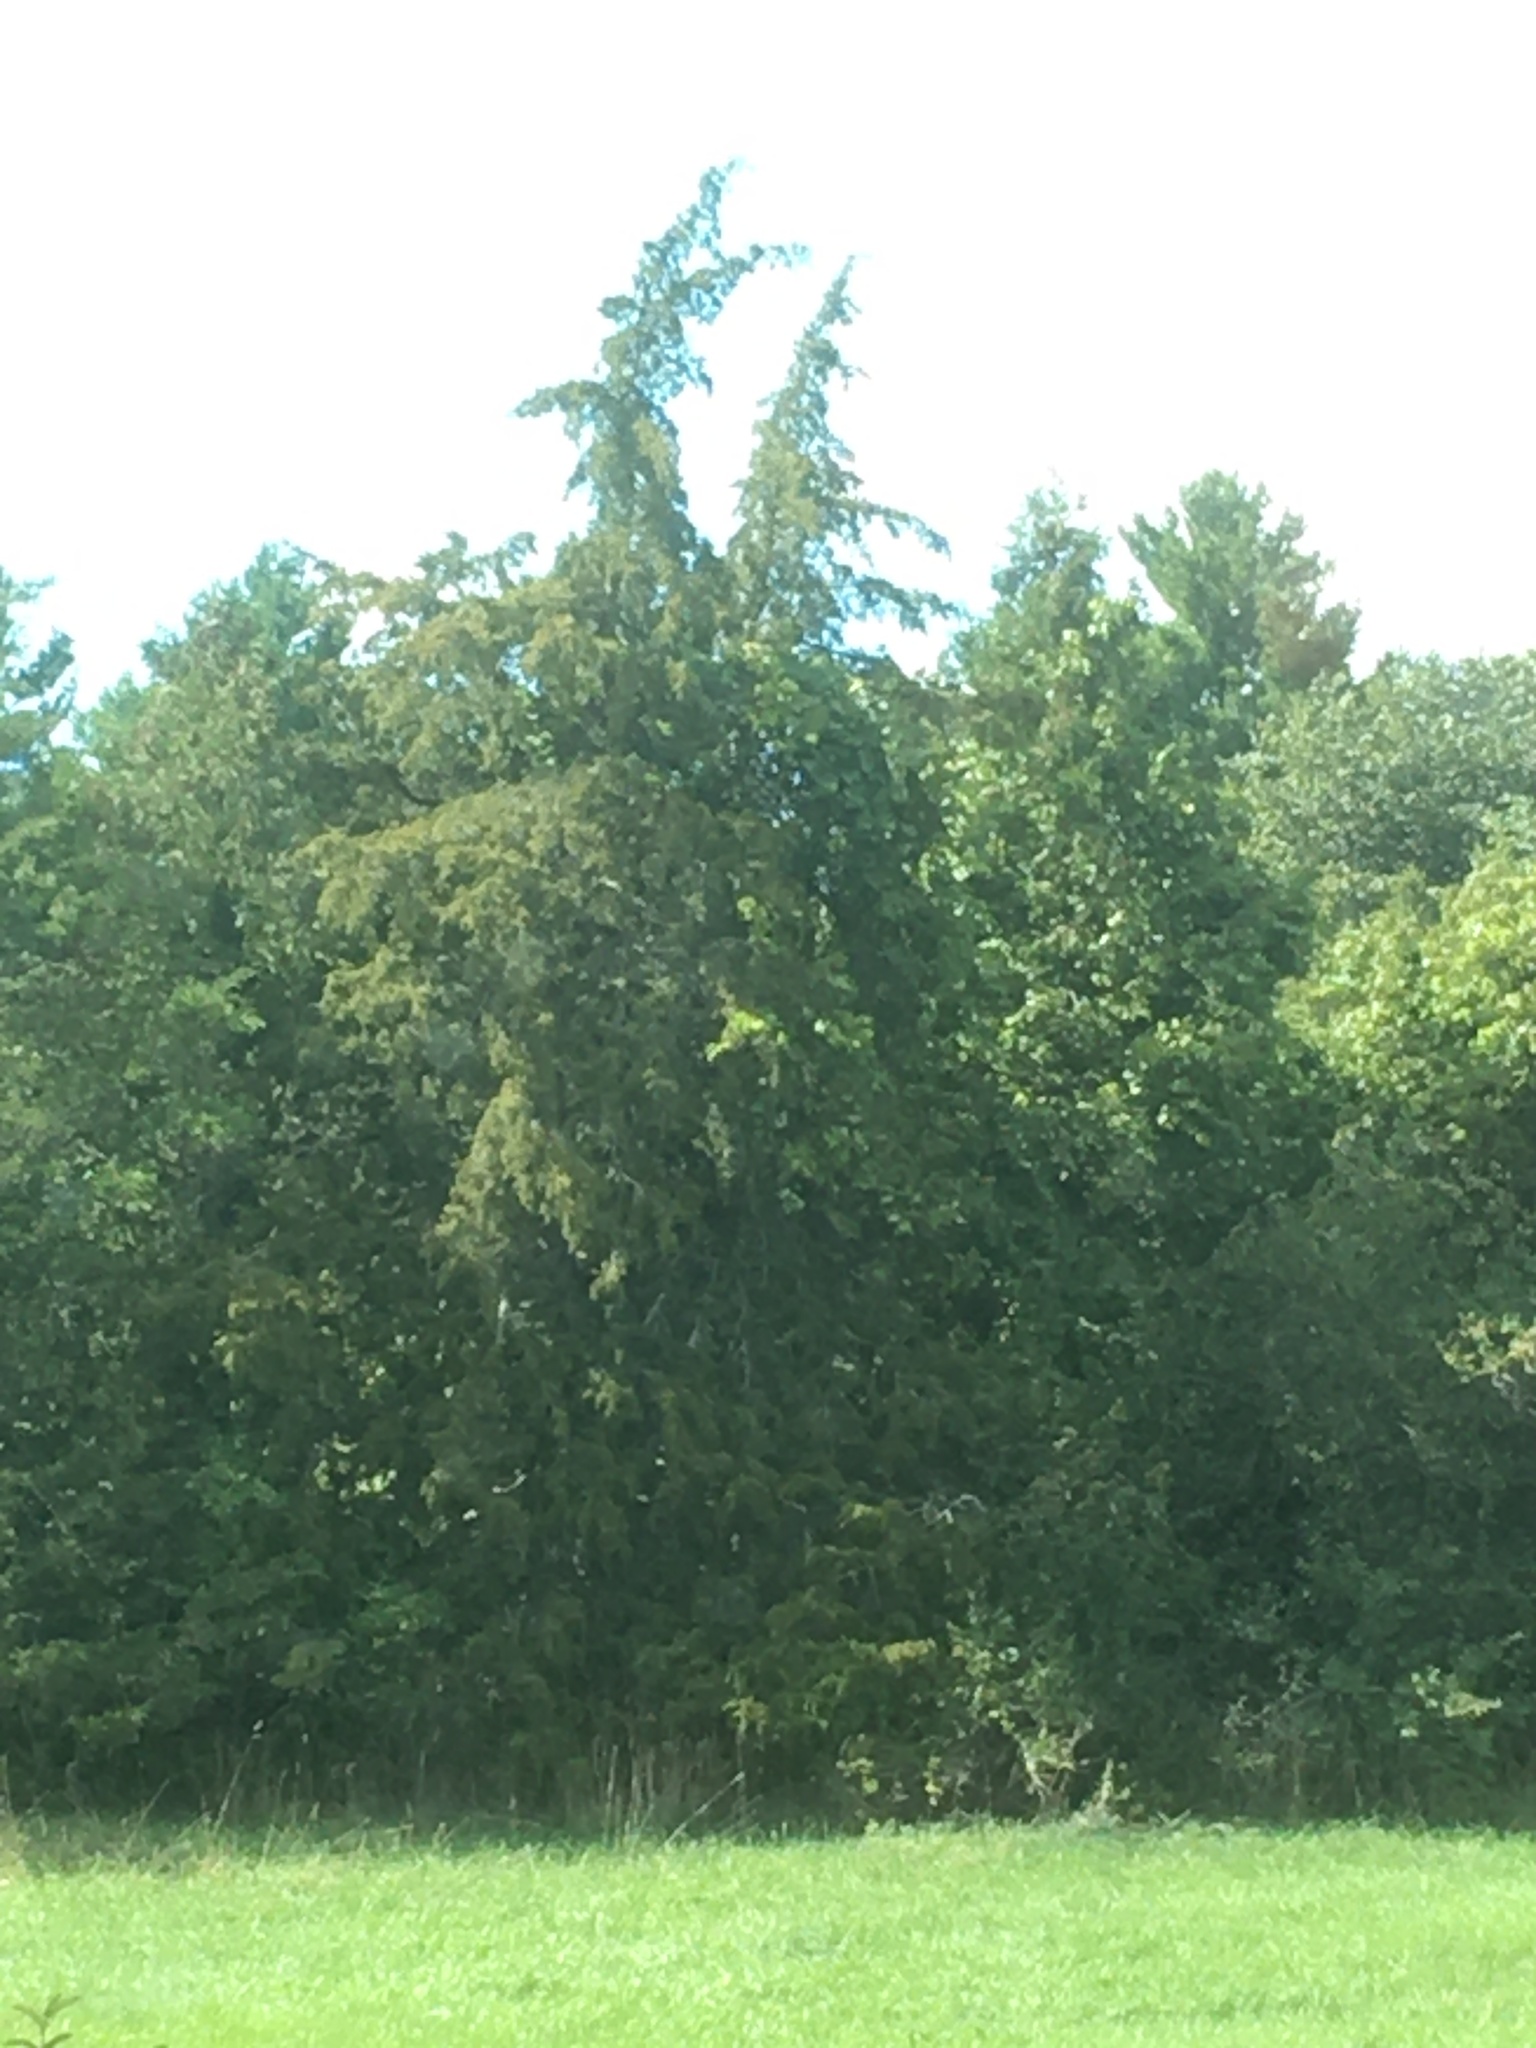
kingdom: Plantae
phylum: Tracheophyta
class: Pinopsida
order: Pinales
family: Cupressaceae
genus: Juniperus
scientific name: Juniperus virginiana
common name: Red juniper
